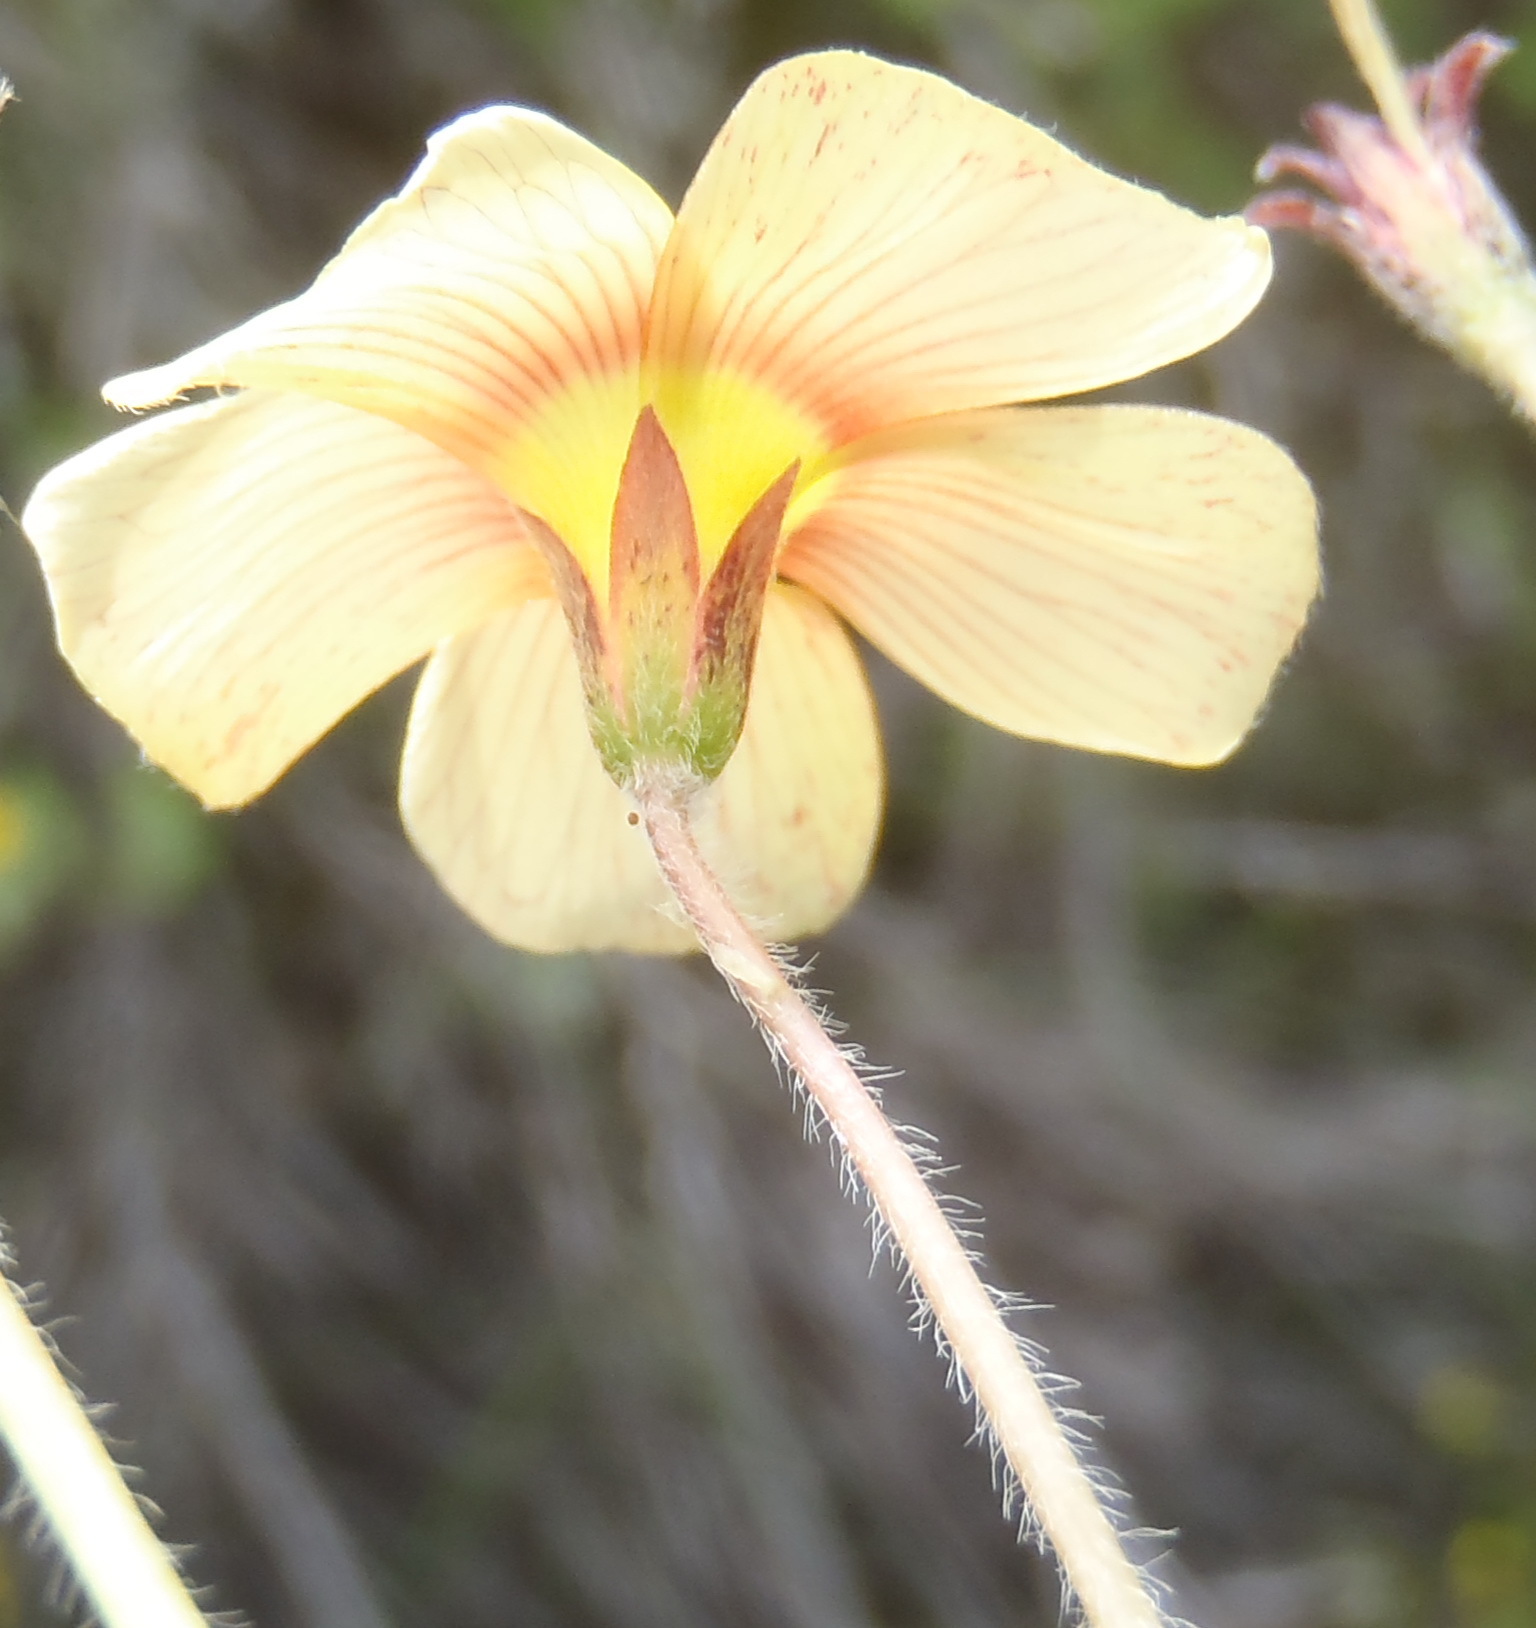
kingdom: Plantae
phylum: Tracheophyta
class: Magnoliopsida
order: Oxalidales
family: Oxalidaceae
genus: Oxalis
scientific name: Oxalis obtusa
